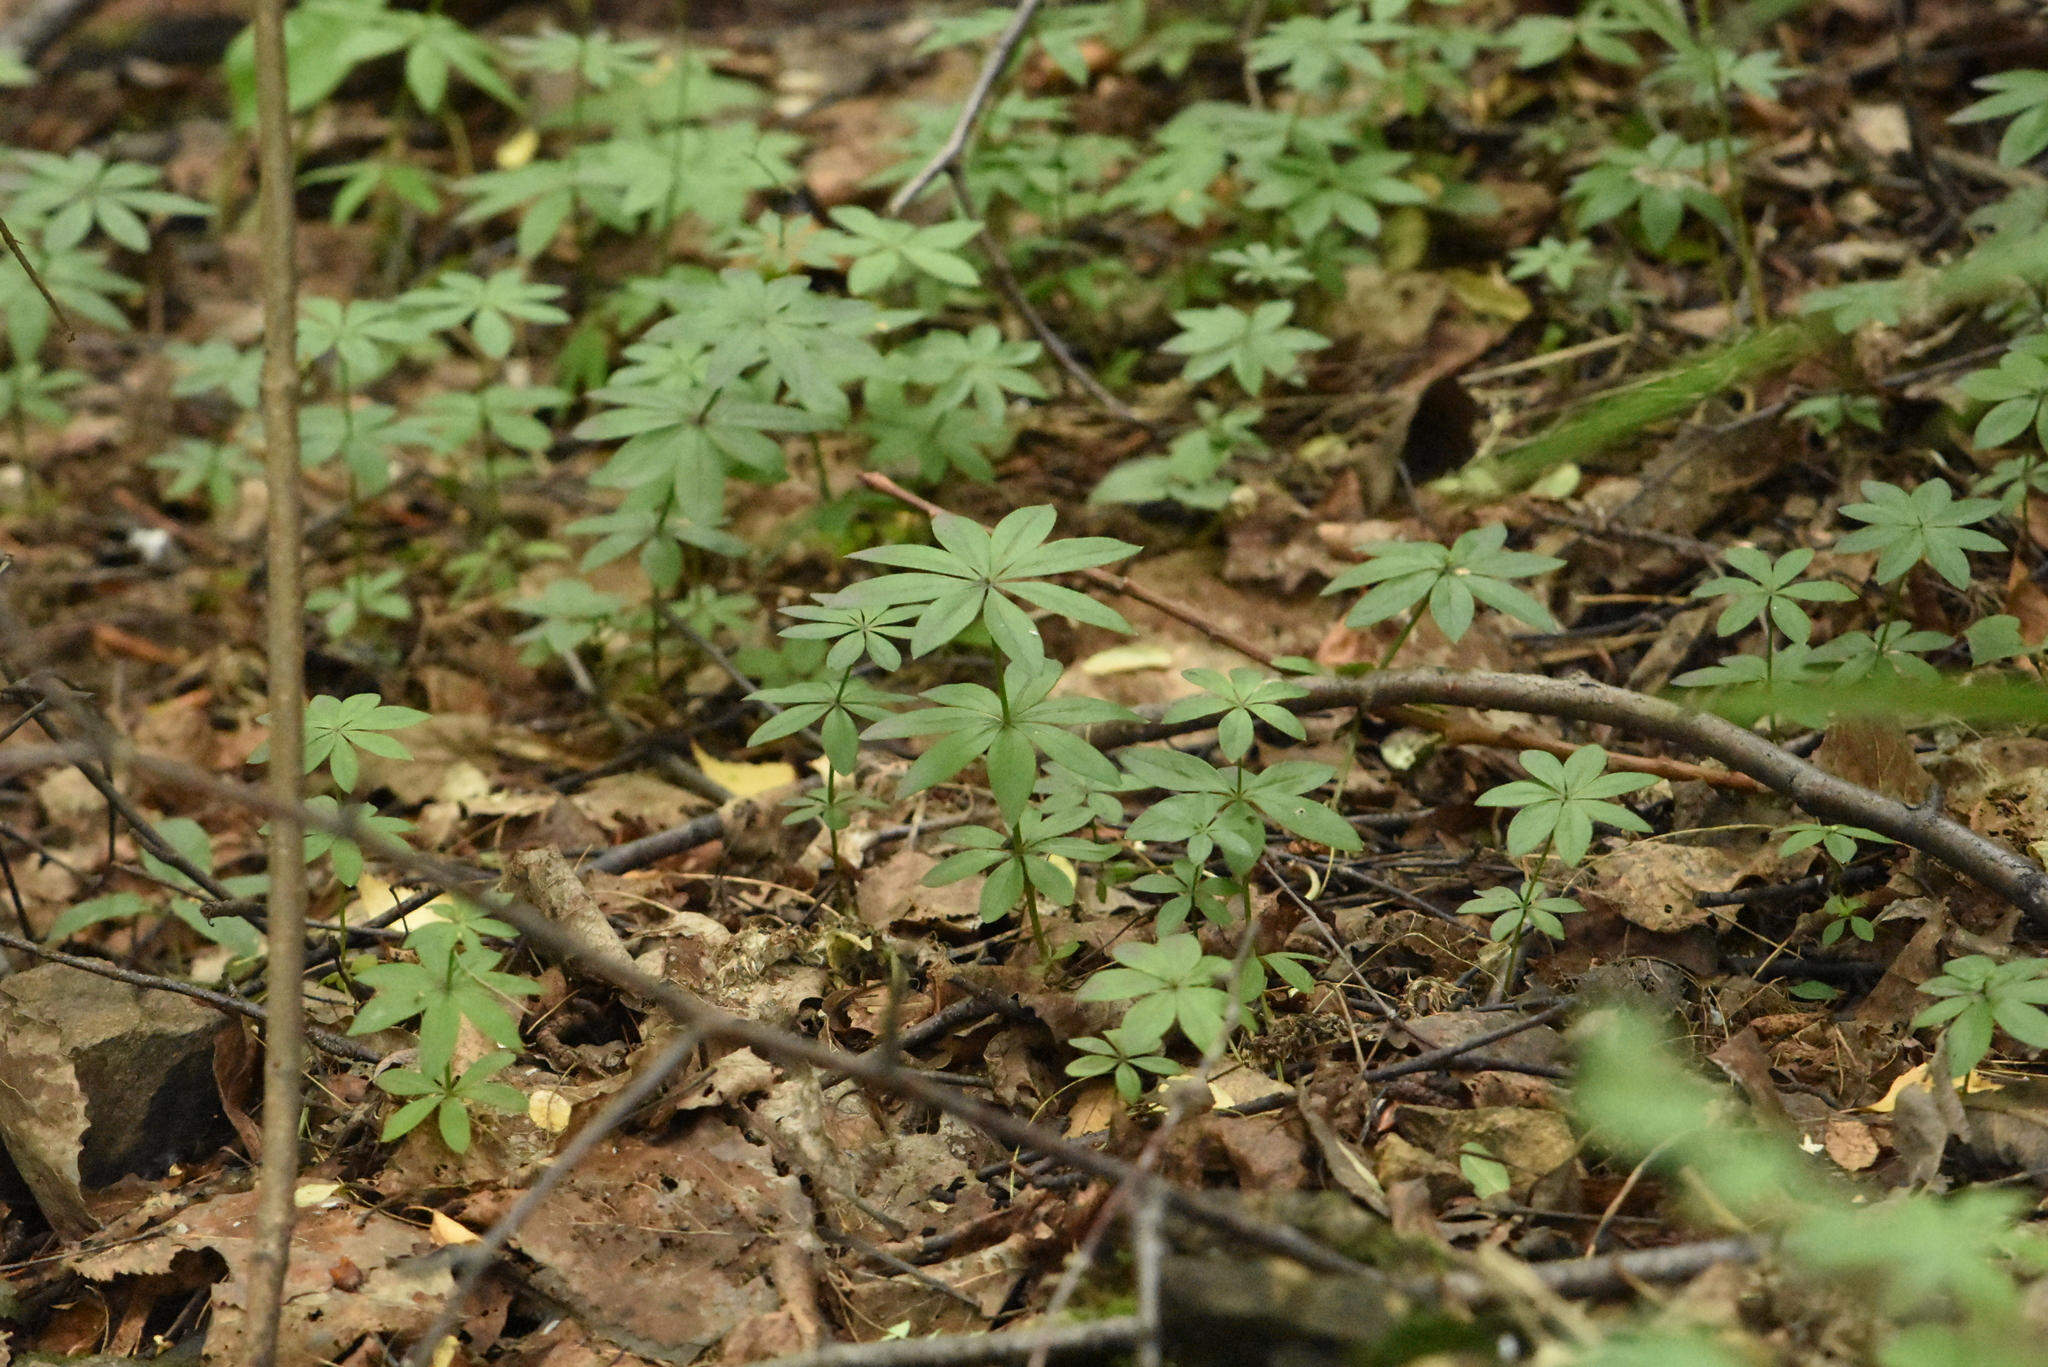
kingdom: Plantae
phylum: Tracheophyta
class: Magnoliopsida
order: Gentianales
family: Rubiaceae
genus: Galium
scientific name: Galium odoratum
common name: Sweet woodruff
